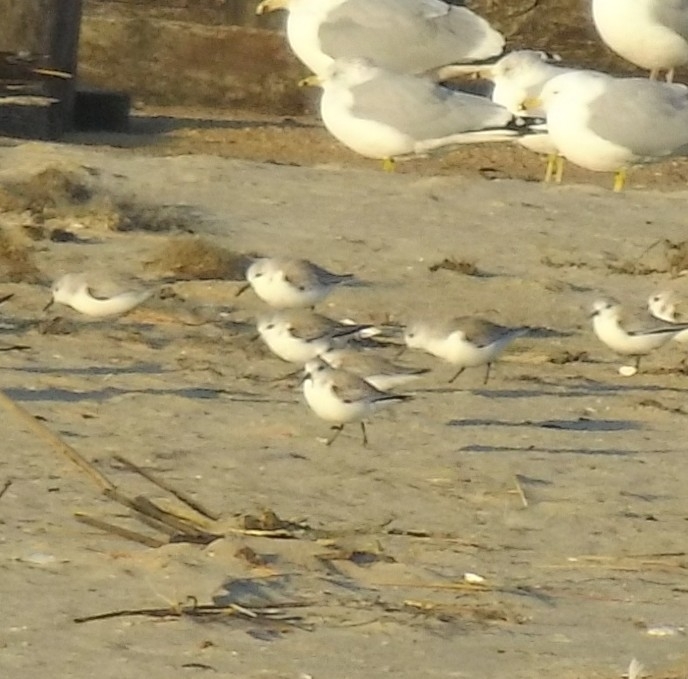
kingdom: Animalia
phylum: Chordata
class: Aves
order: Charadriiformes
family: Scolopacidae
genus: Calidris
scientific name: Calidris alba
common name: Sanderling
